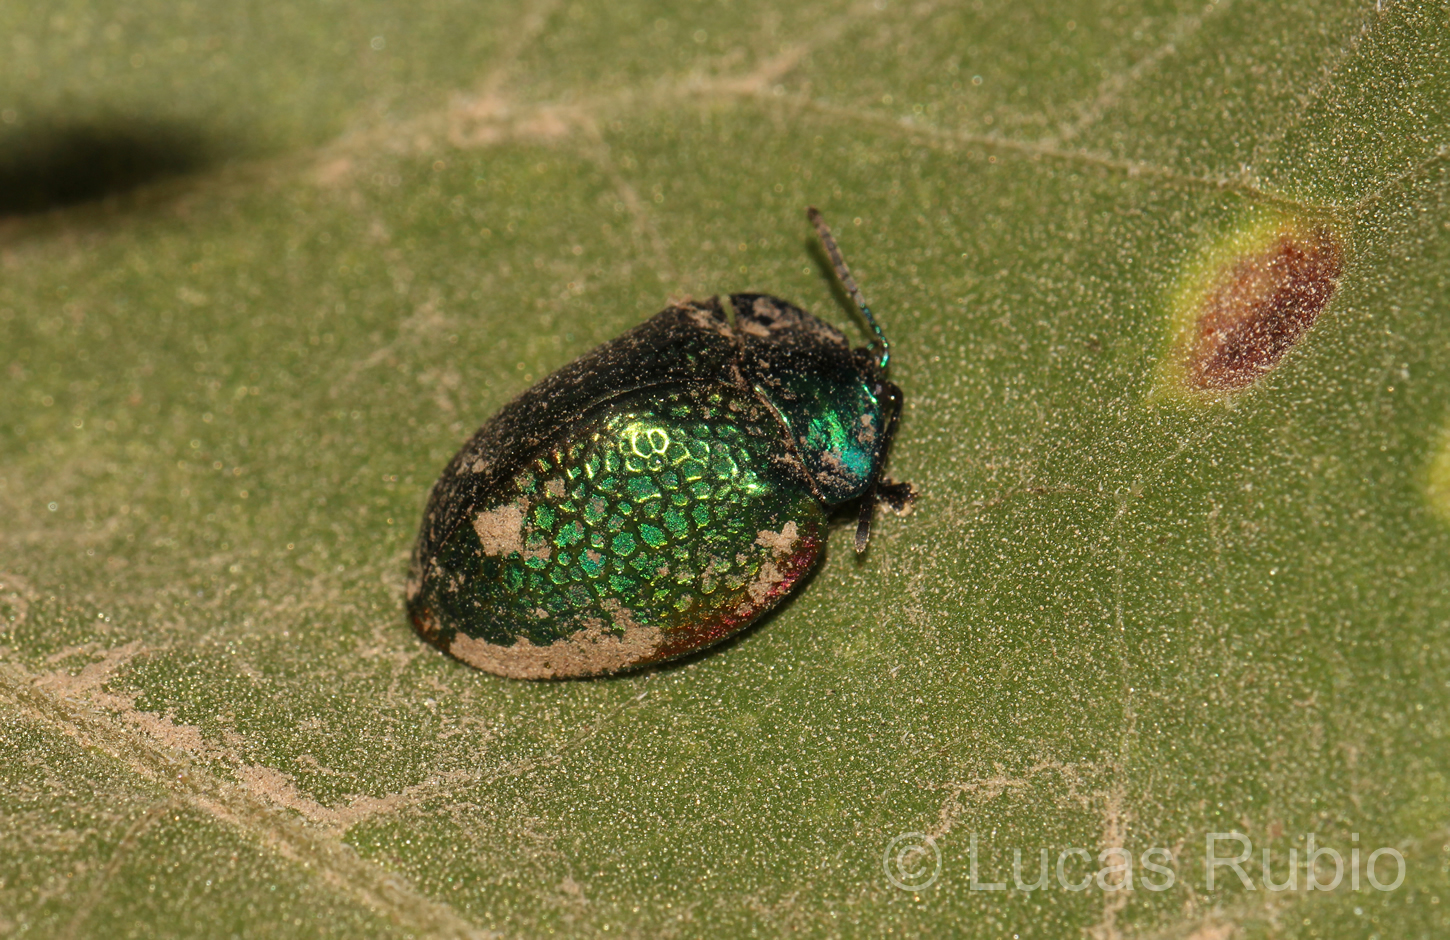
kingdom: Animalia
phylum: Arthropoda
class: Insecta
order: Coleoptera
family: Chrysomelidae
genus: Stolas
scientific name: Stolas festiva
